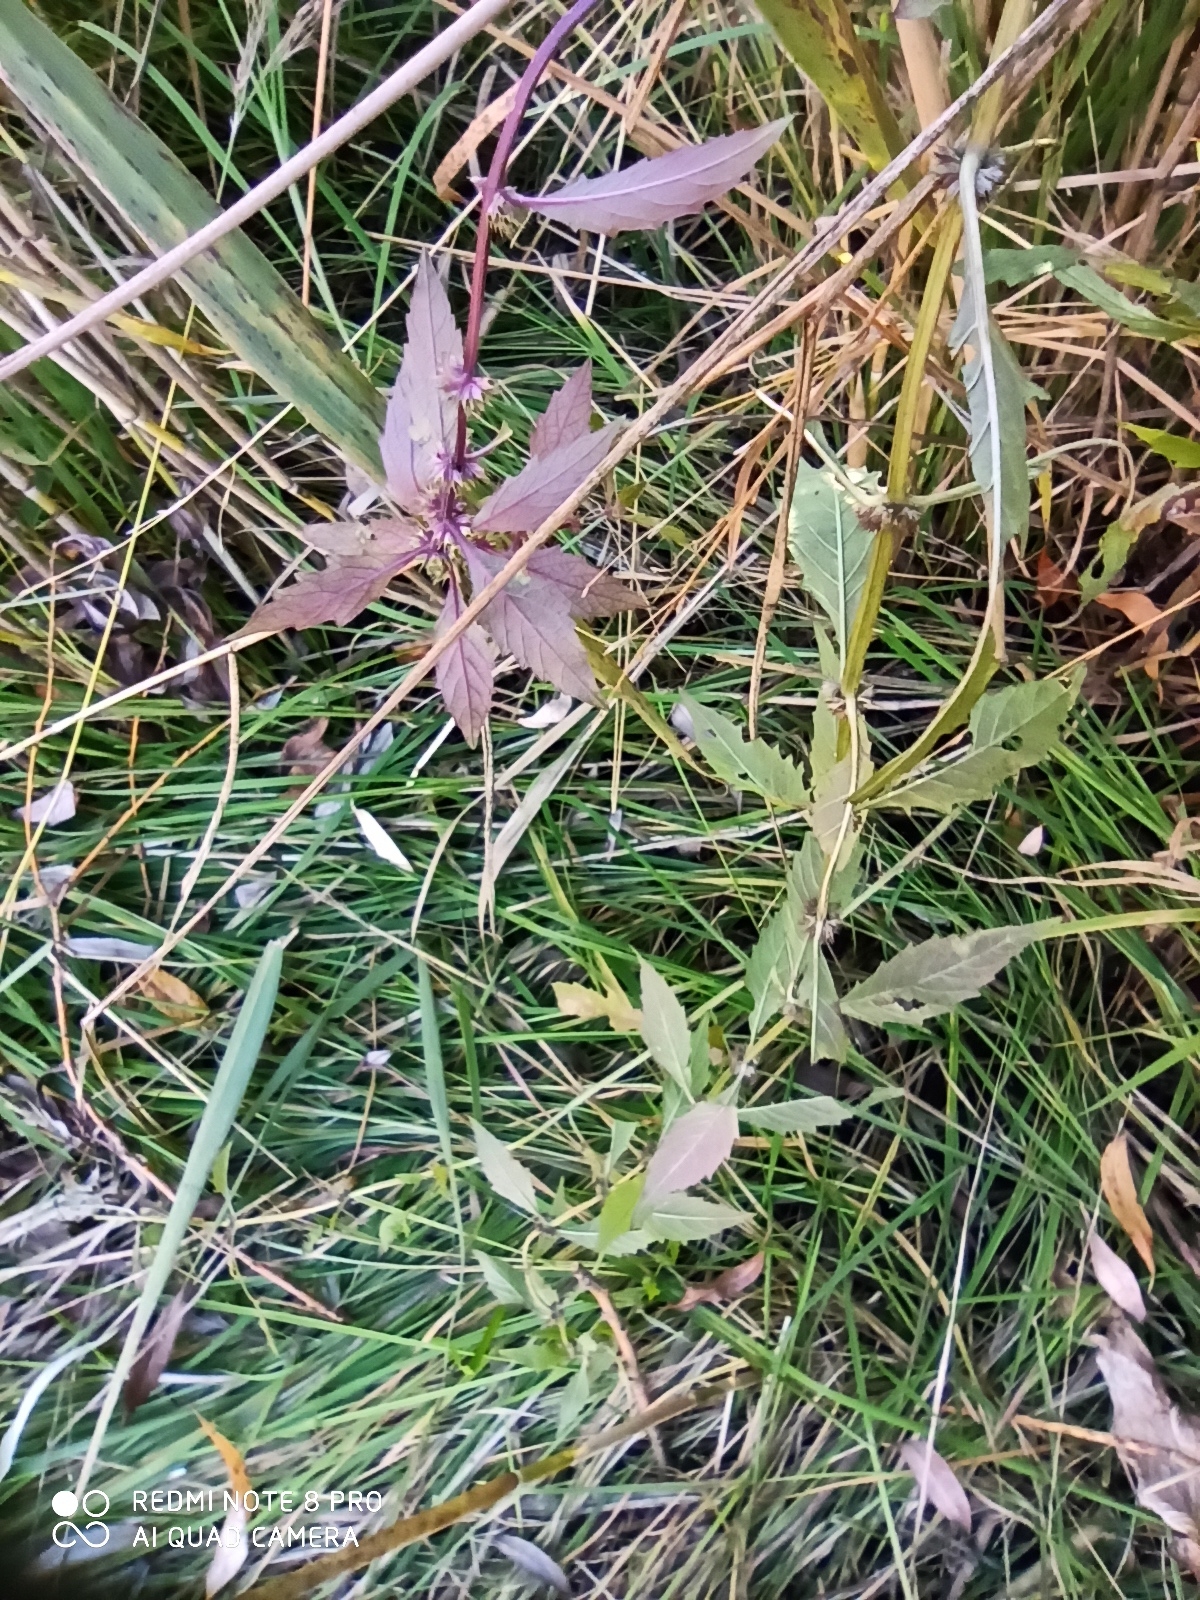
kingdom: Plantae
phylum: Tracheophyta
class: Magnoliopsida
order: Lamiales
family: Lamiaceae
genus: Lycopus
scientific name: Lycopus europaeus
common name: European bugleweed
